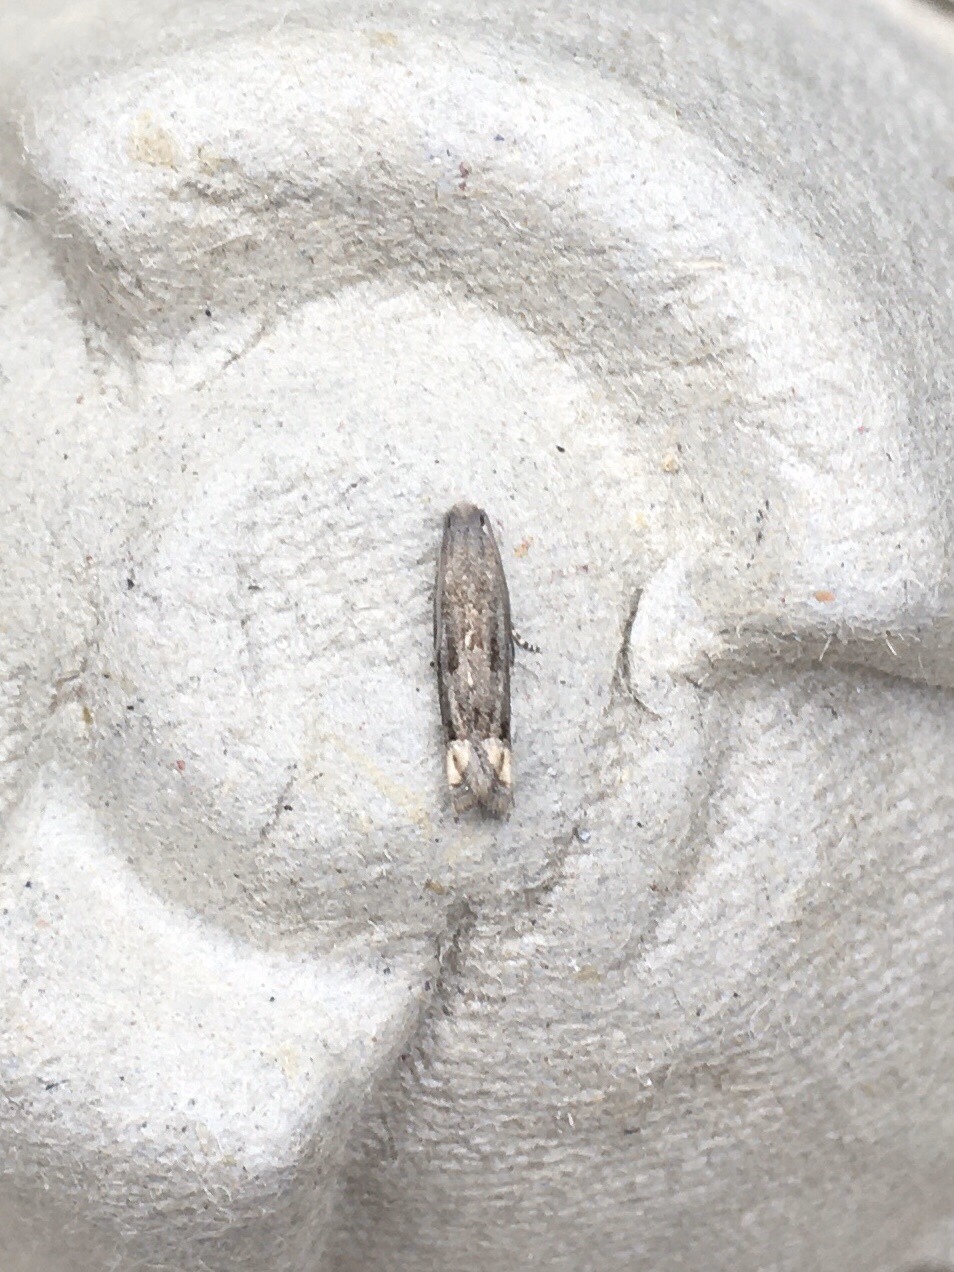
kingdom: Animalia
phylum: Arthropoda
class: Insecta
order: Lepidoptera
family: Tortricidae
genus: Epiblema
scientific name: Epiblema strenuana
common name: Ragweed borer moth
